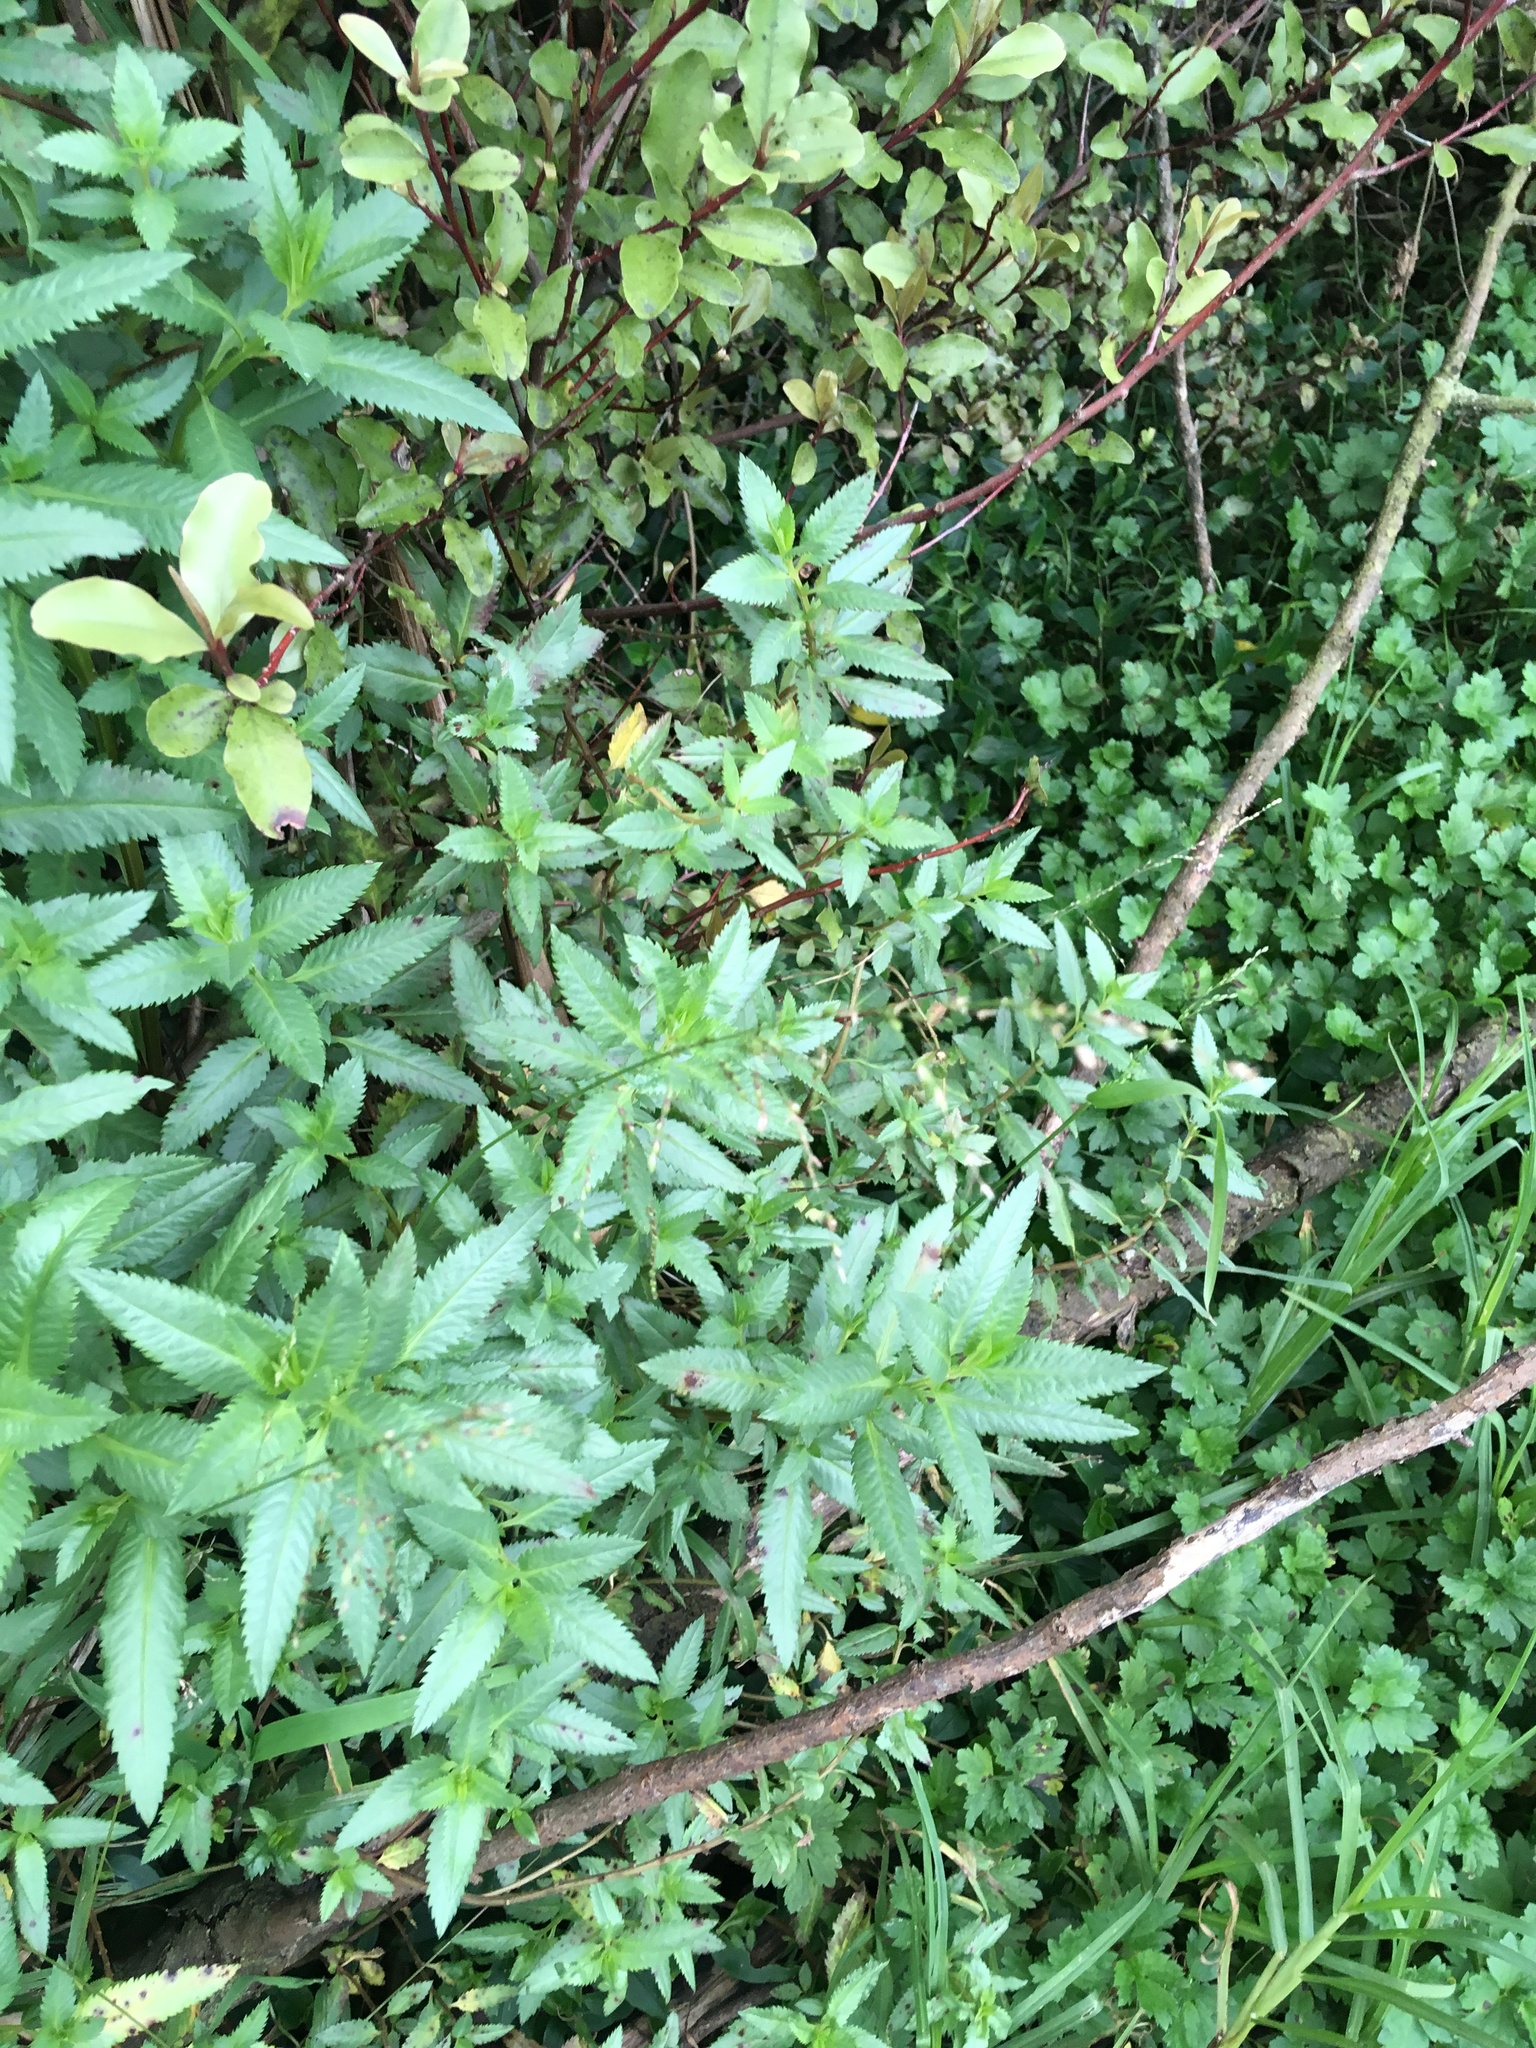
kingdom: Plantae
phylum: Tracheophyta
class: Liliopsida
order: Poales
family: Poaceae
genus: Cenchrus
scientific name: Cenchrus clandestinus
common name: Kikuyugrass
